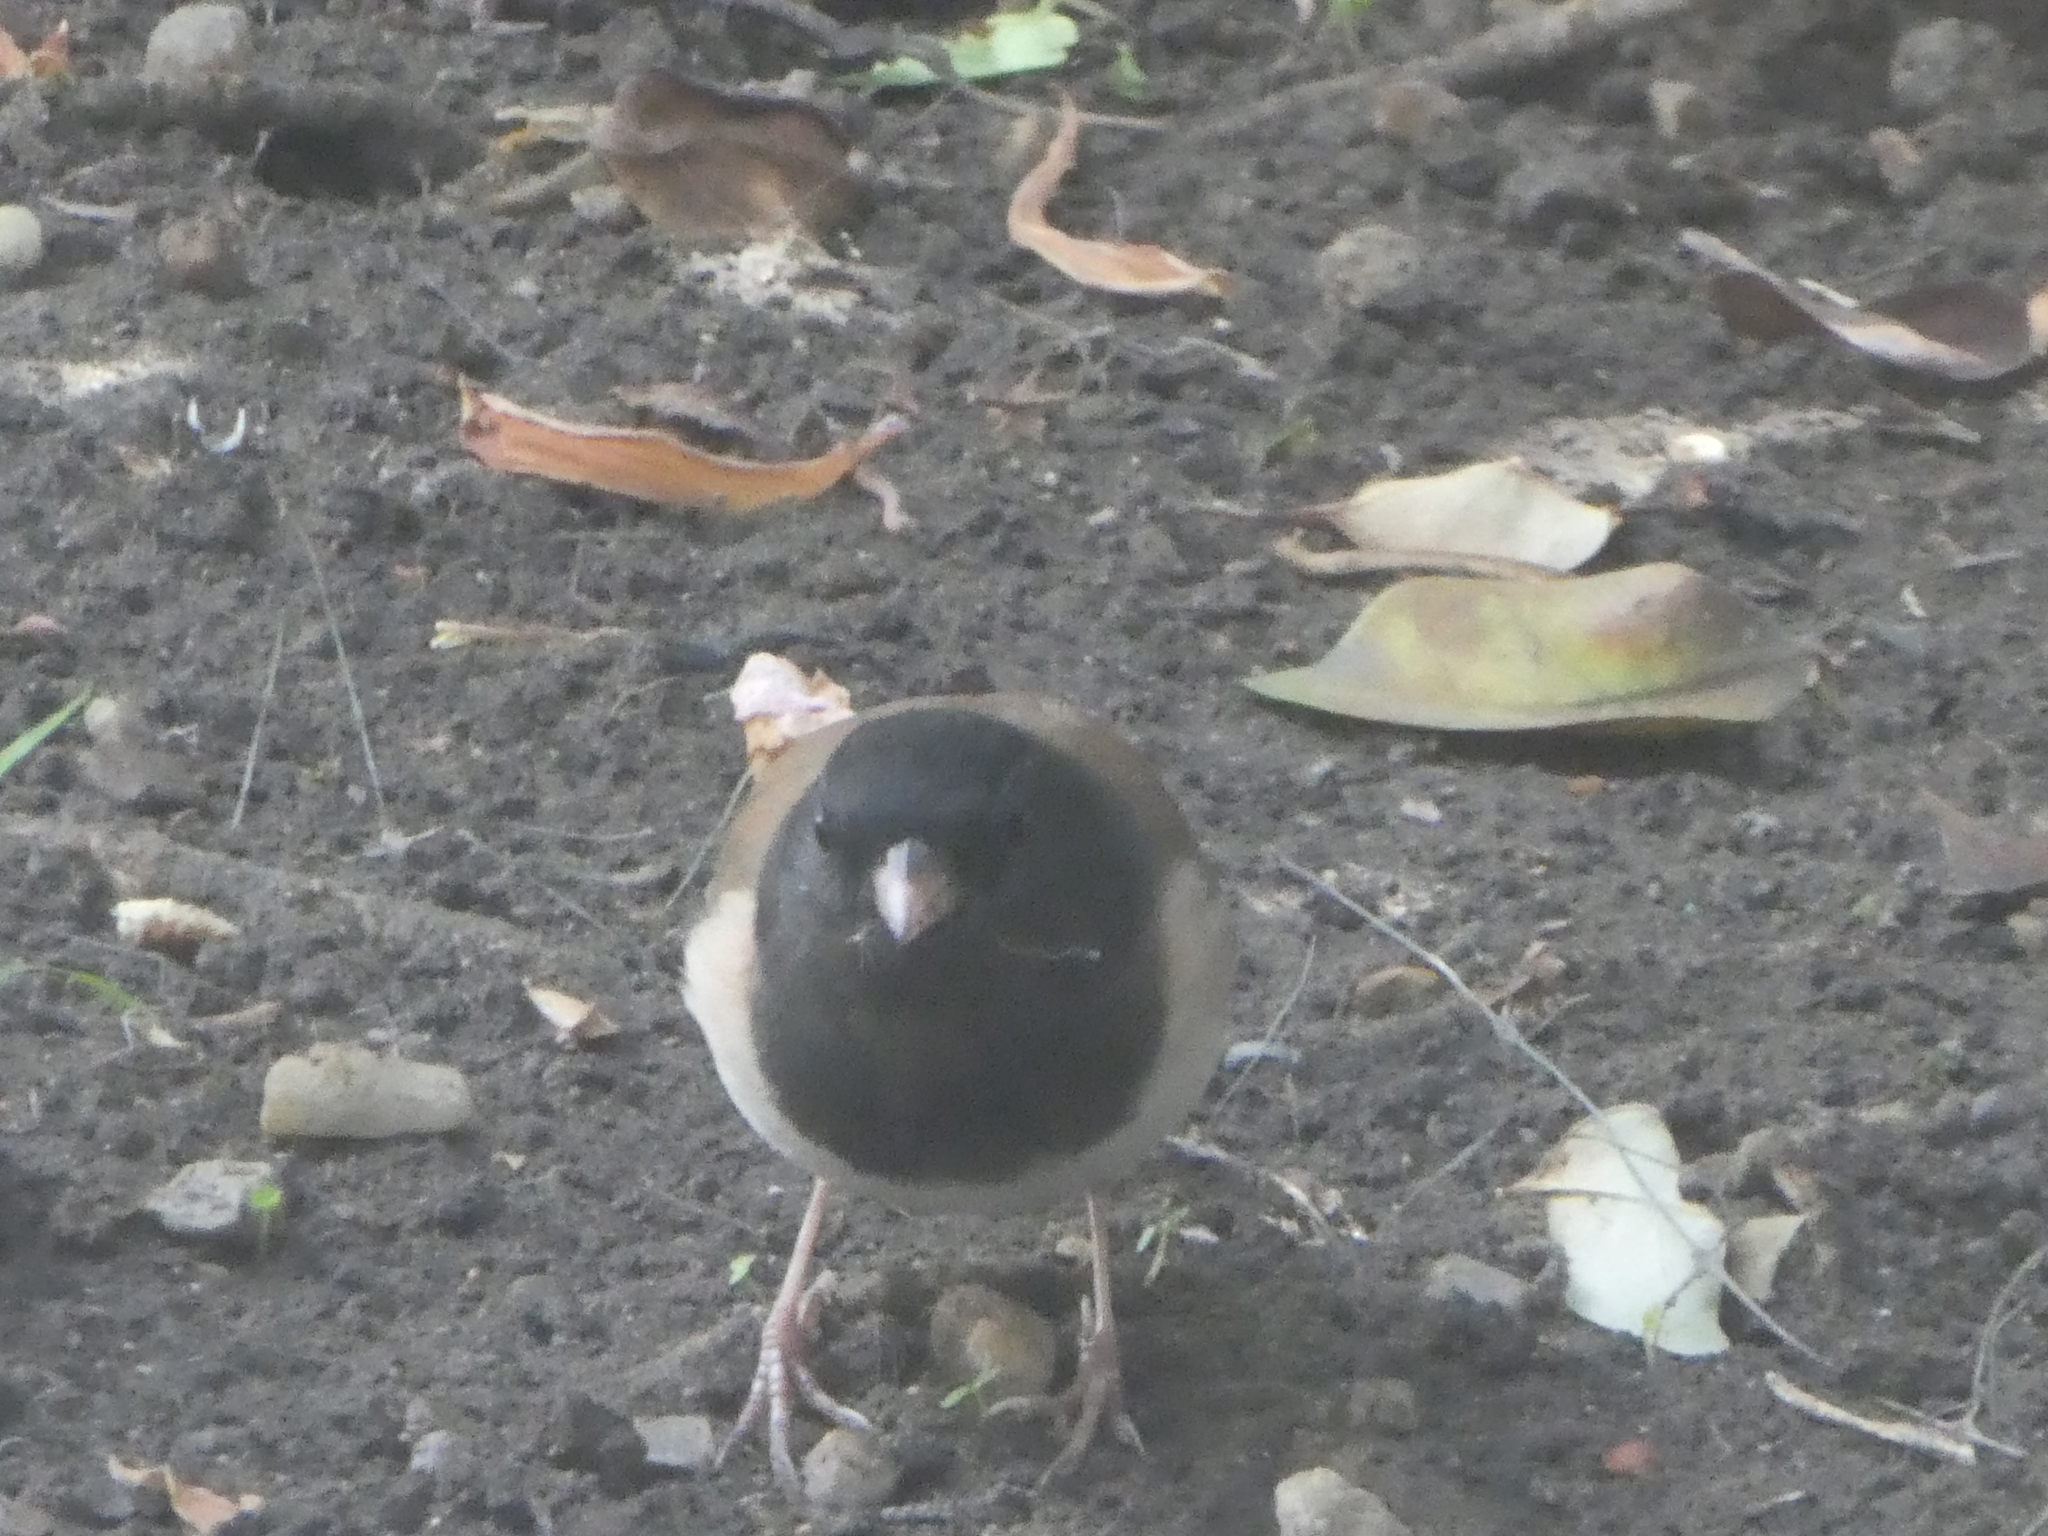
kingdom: Animalia
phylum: Chordata
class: Aves
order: Passeriformes
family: Passerellidae
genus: Junco
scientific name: Junco hyemalis
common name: Dark-eyed junco
